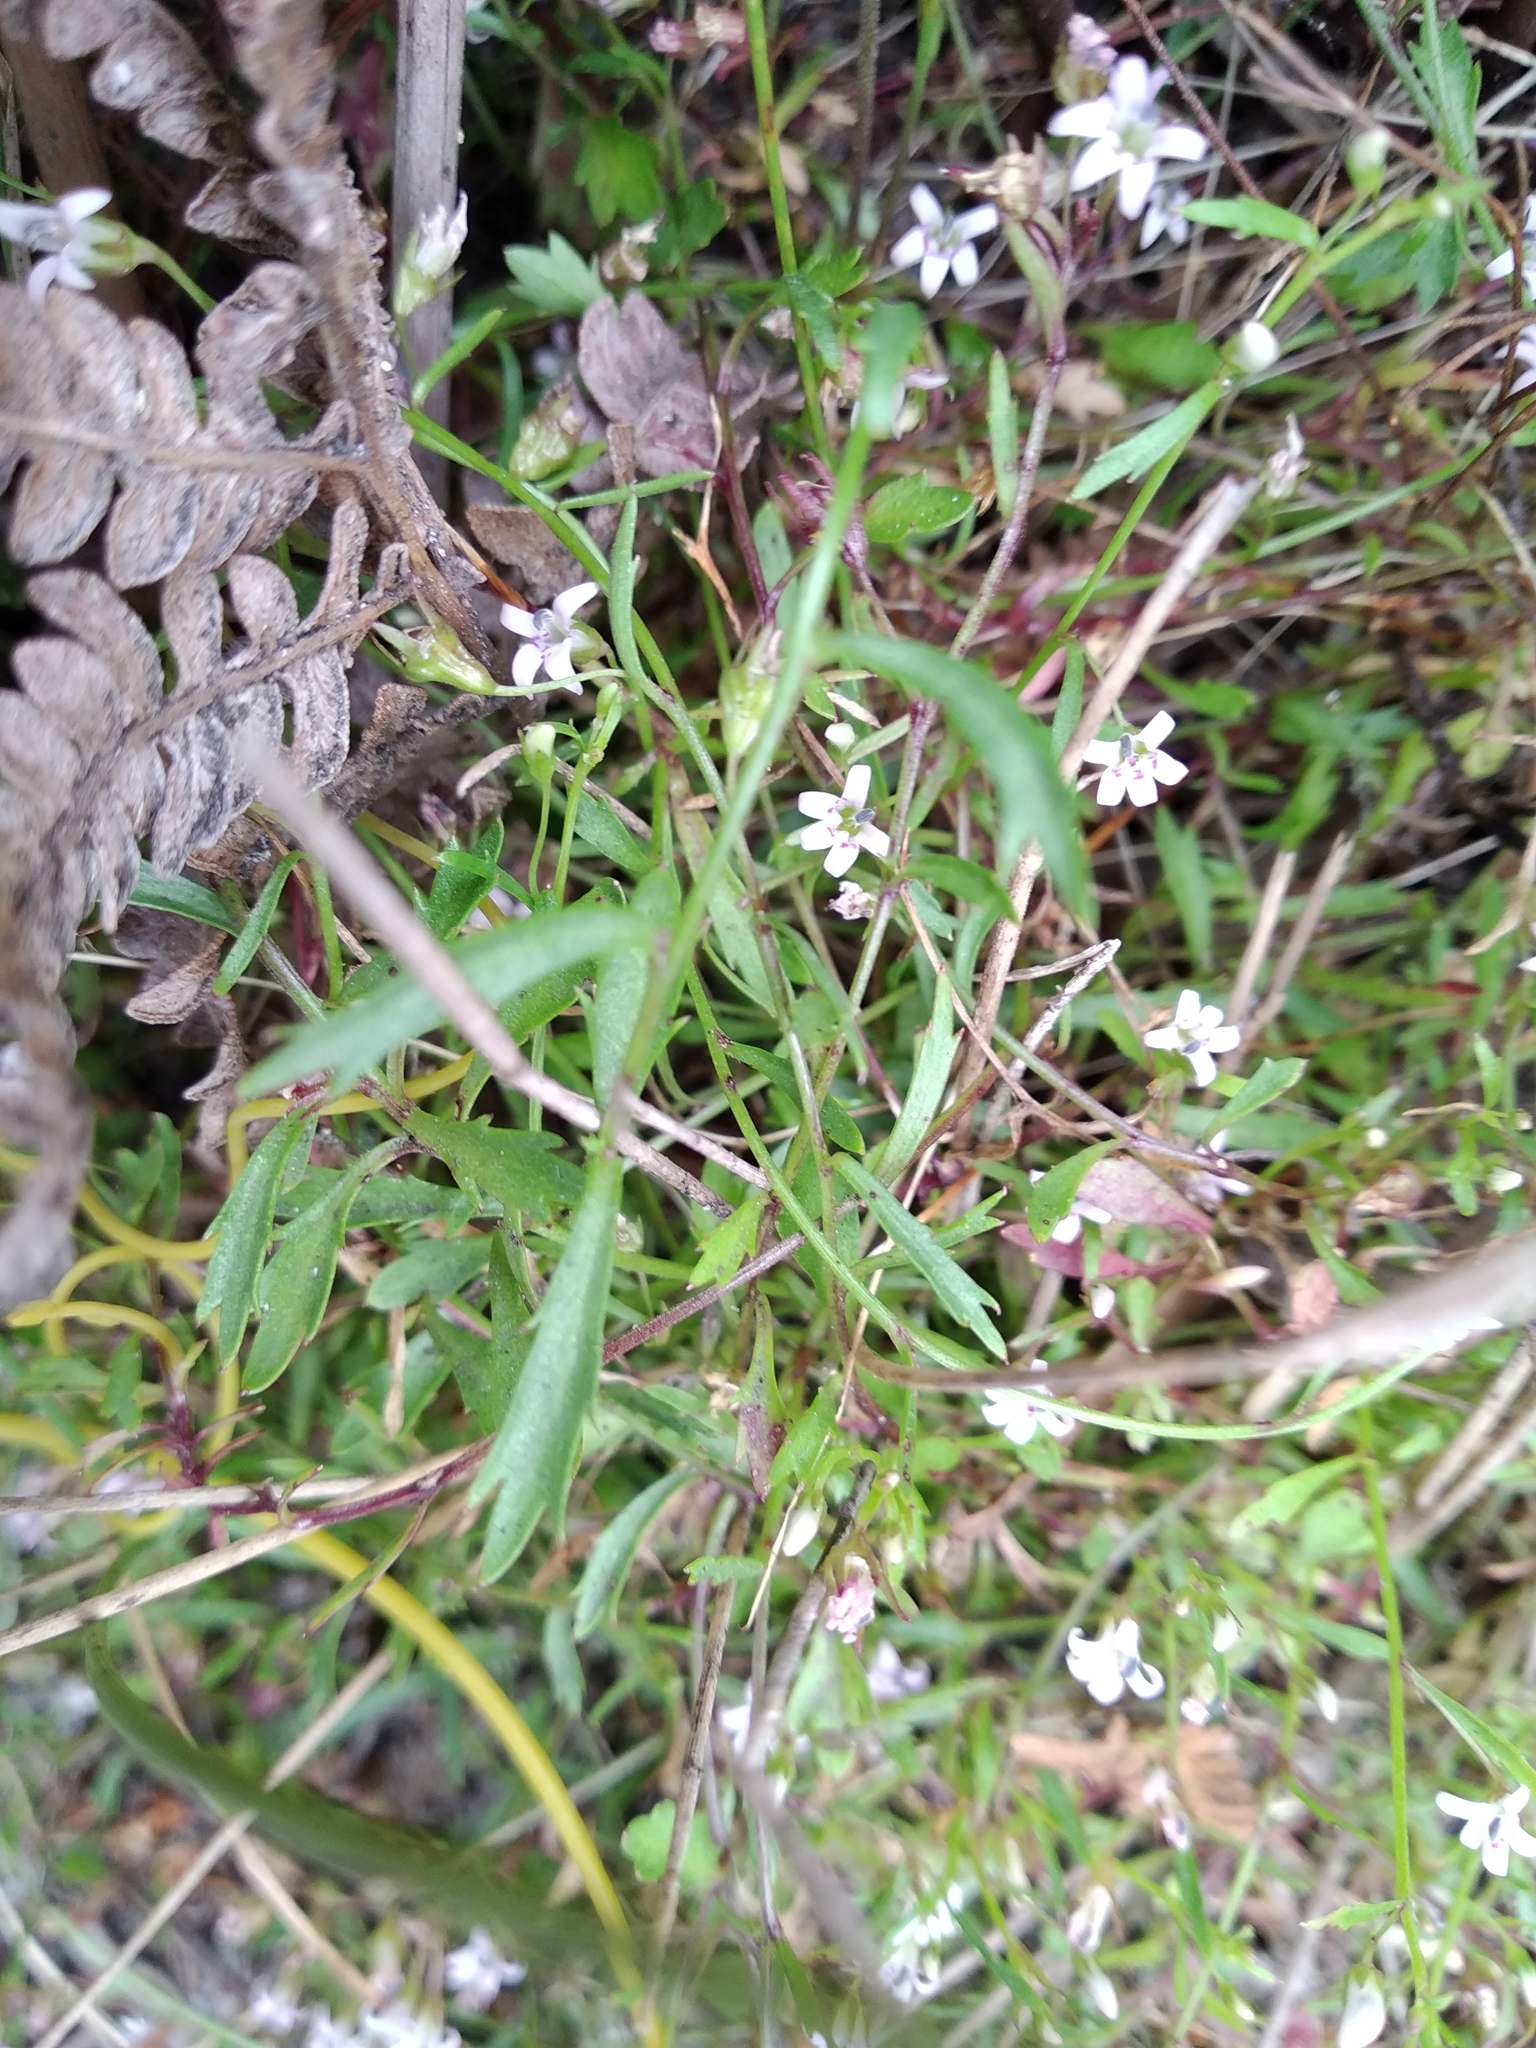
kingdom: Plantae
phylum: Tracheophyta
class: Magnoliopsida
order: Asterales
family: Campanulaceae
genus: Lobelia
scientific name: Lobelia eckloniana
